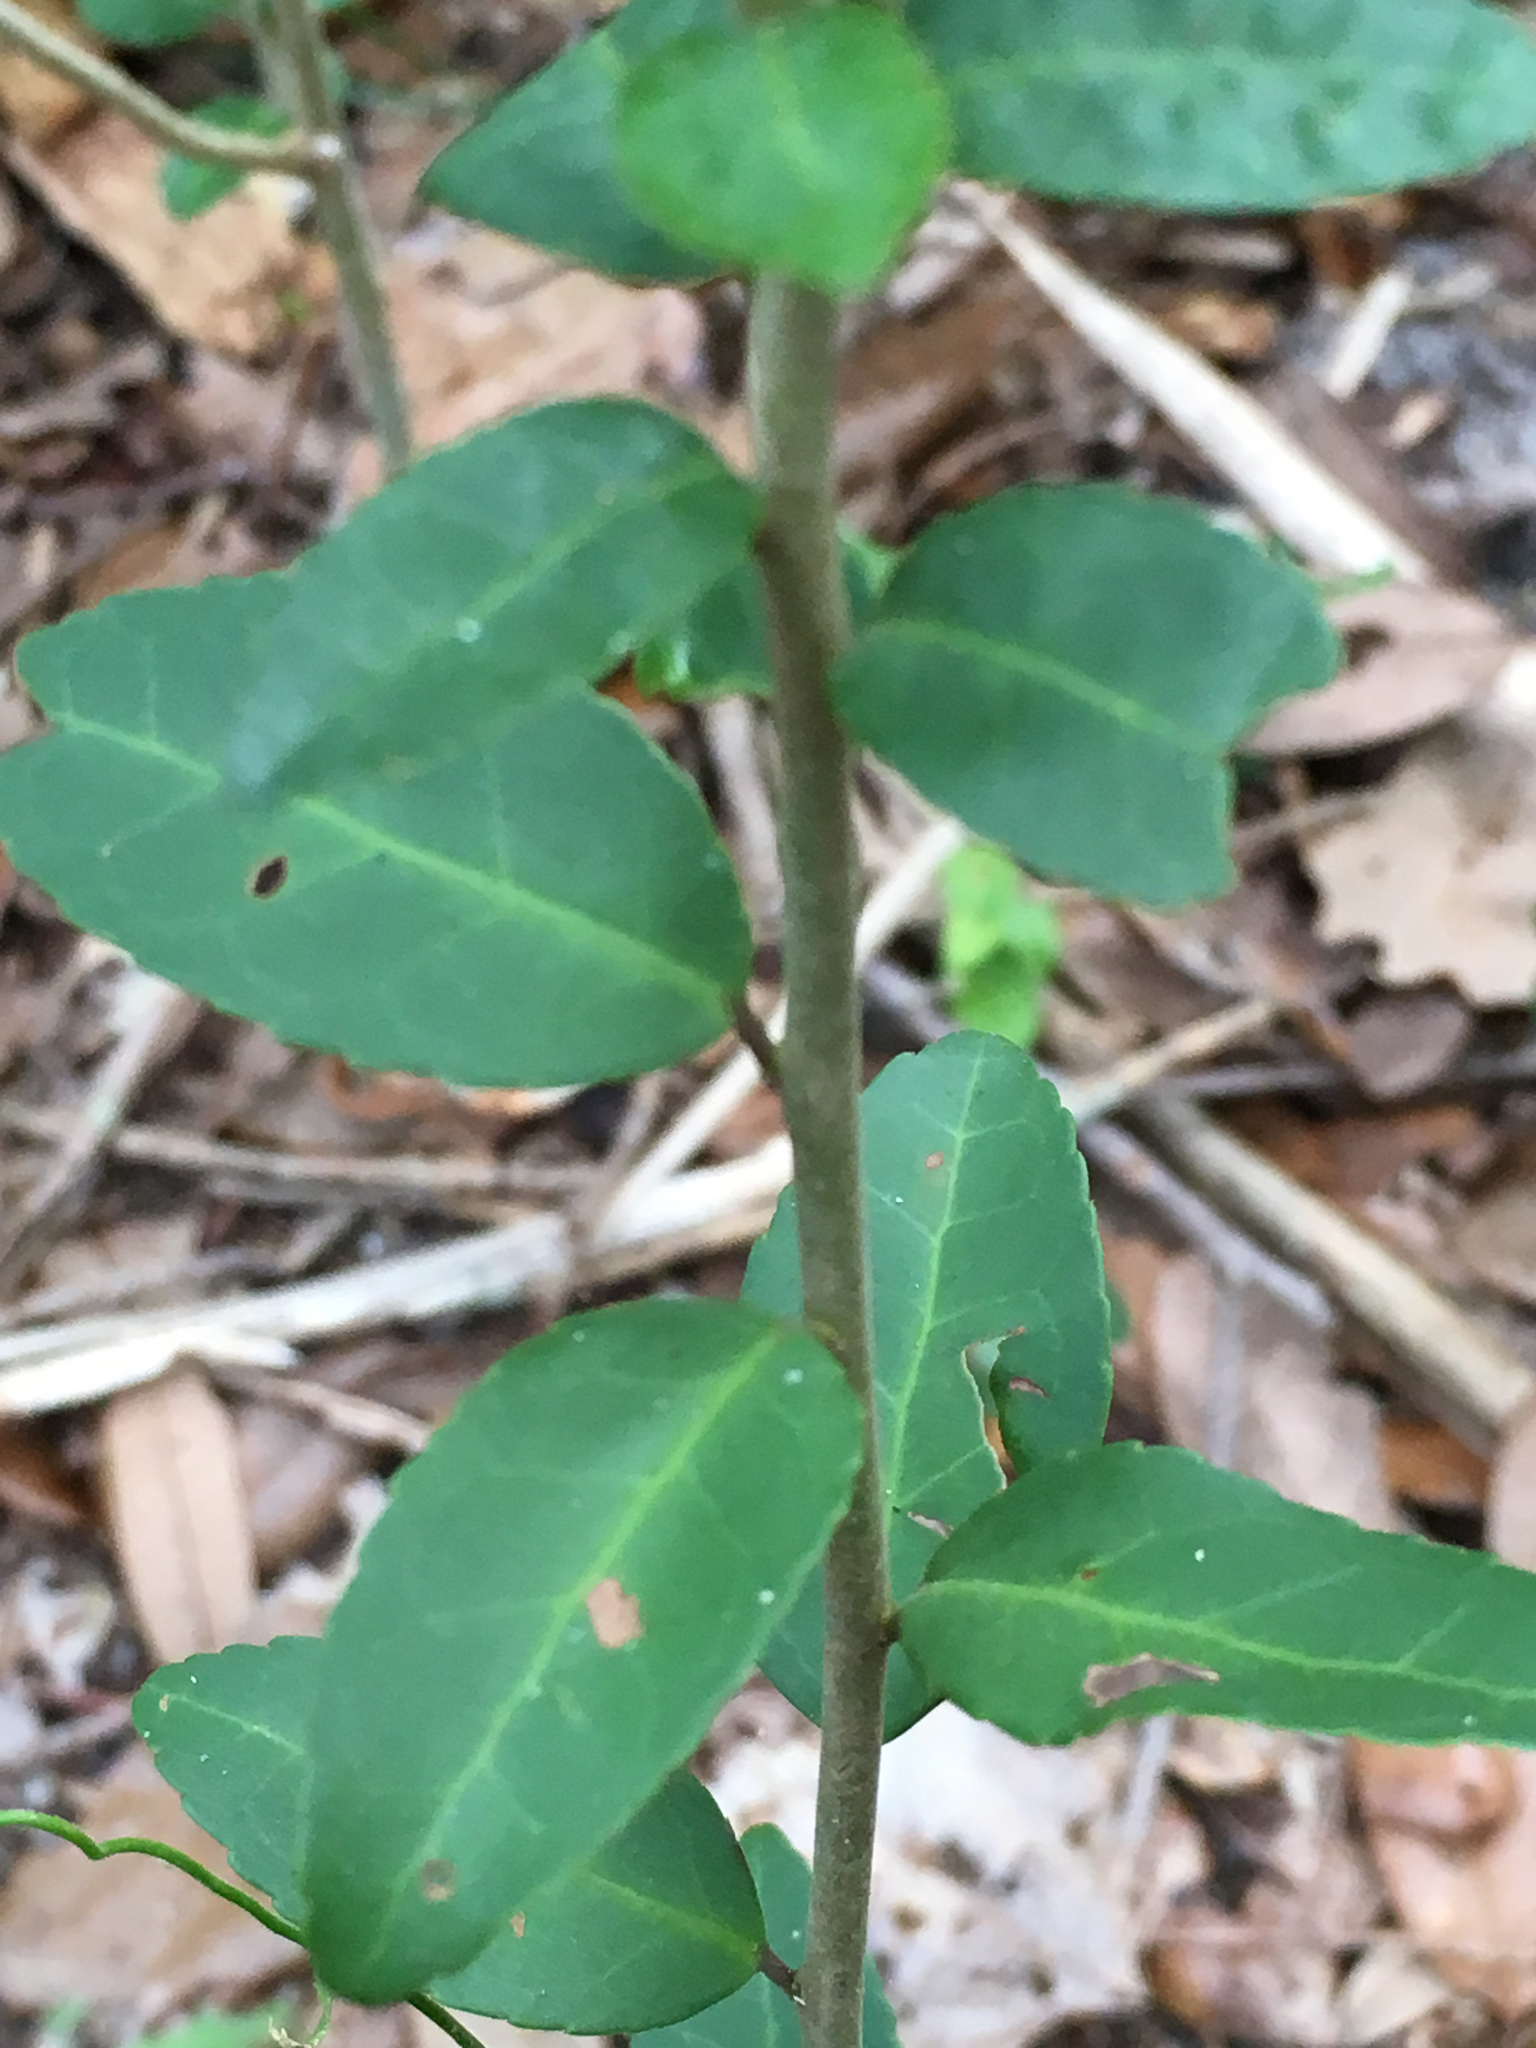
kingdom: Plantae
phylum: Tracheophyta
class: Magnoliopsida
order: Aquifoliales
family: Aquifoliaceae
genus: Ilex
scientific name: Ilex vomitoria
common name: Yaupon holly
